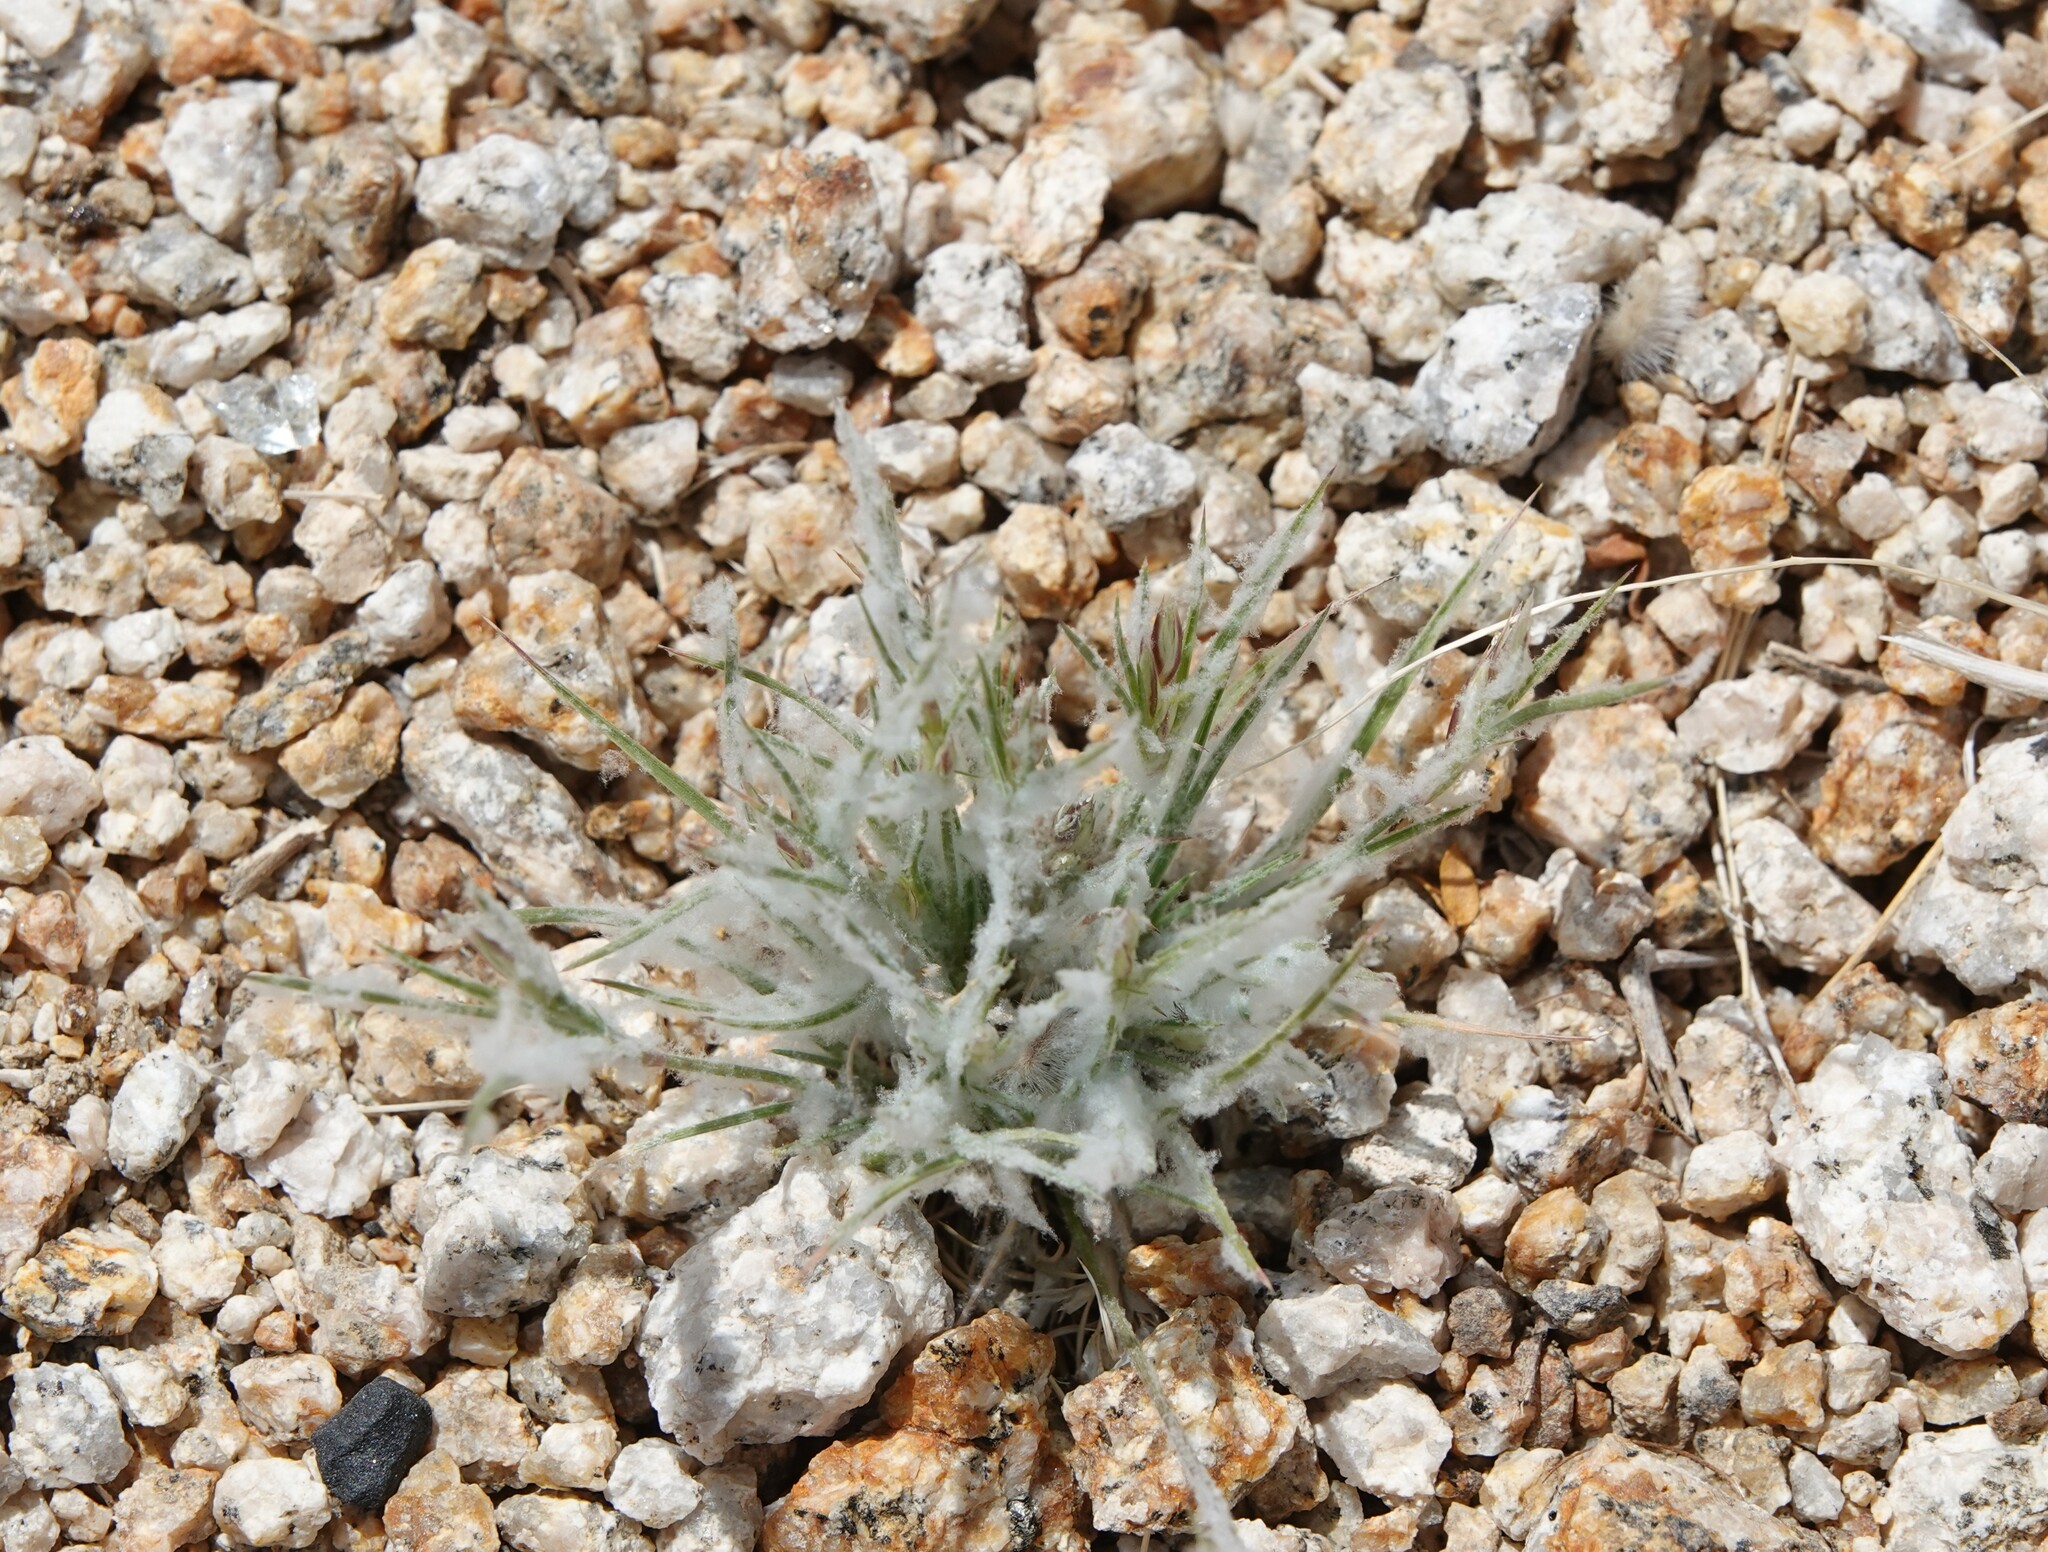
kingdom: Plantae
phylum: Tracheophyta
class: Liliopsida
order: Poales
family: Poaceae
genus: Dasyochloa
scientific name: Dasyochloa pulchella
